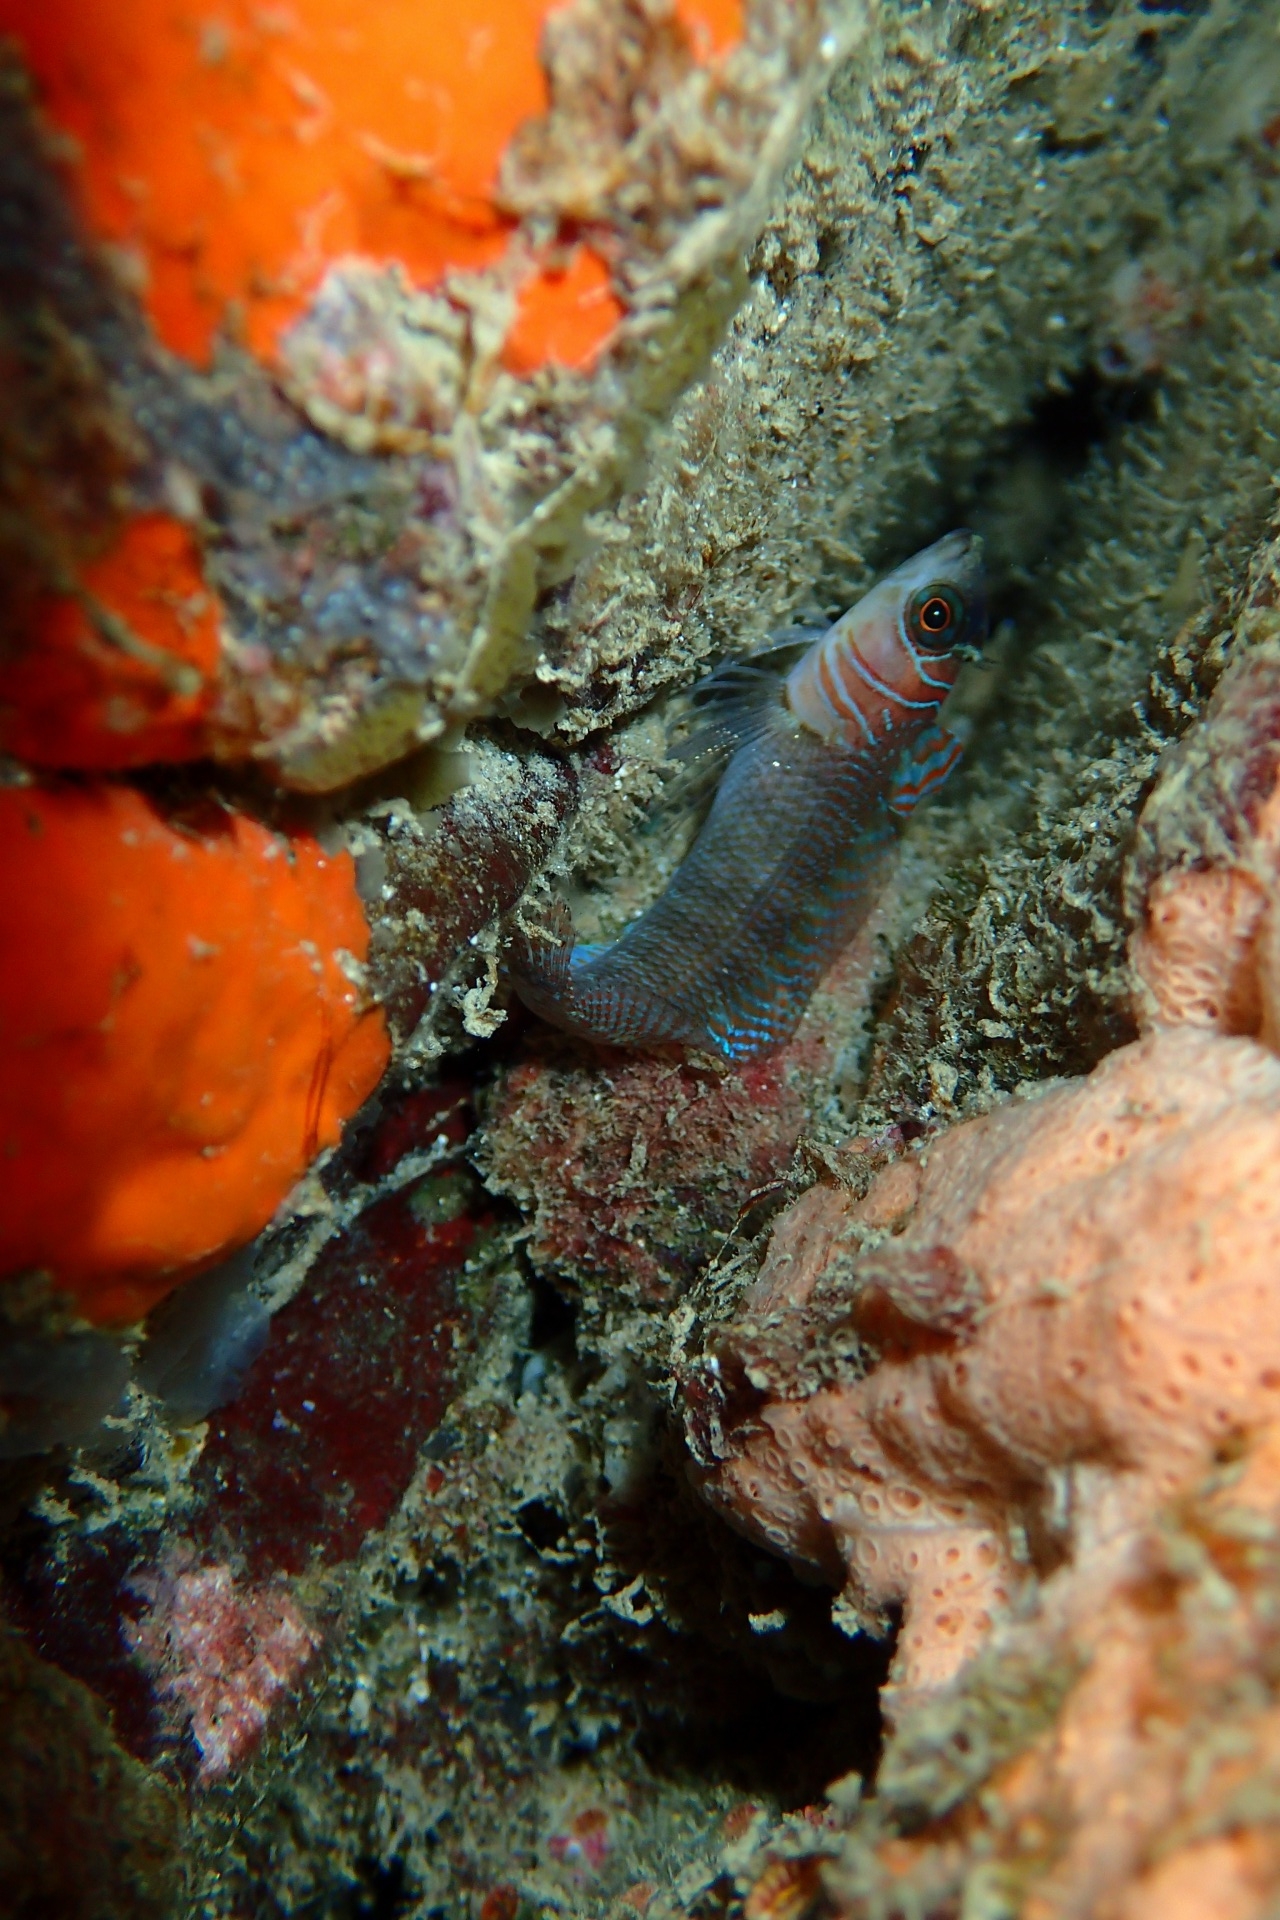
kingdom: Animalia
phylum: Chordata
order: Perciformes
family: Tripterygiidae
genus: Ruanoho
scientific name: Ruanoho whero
